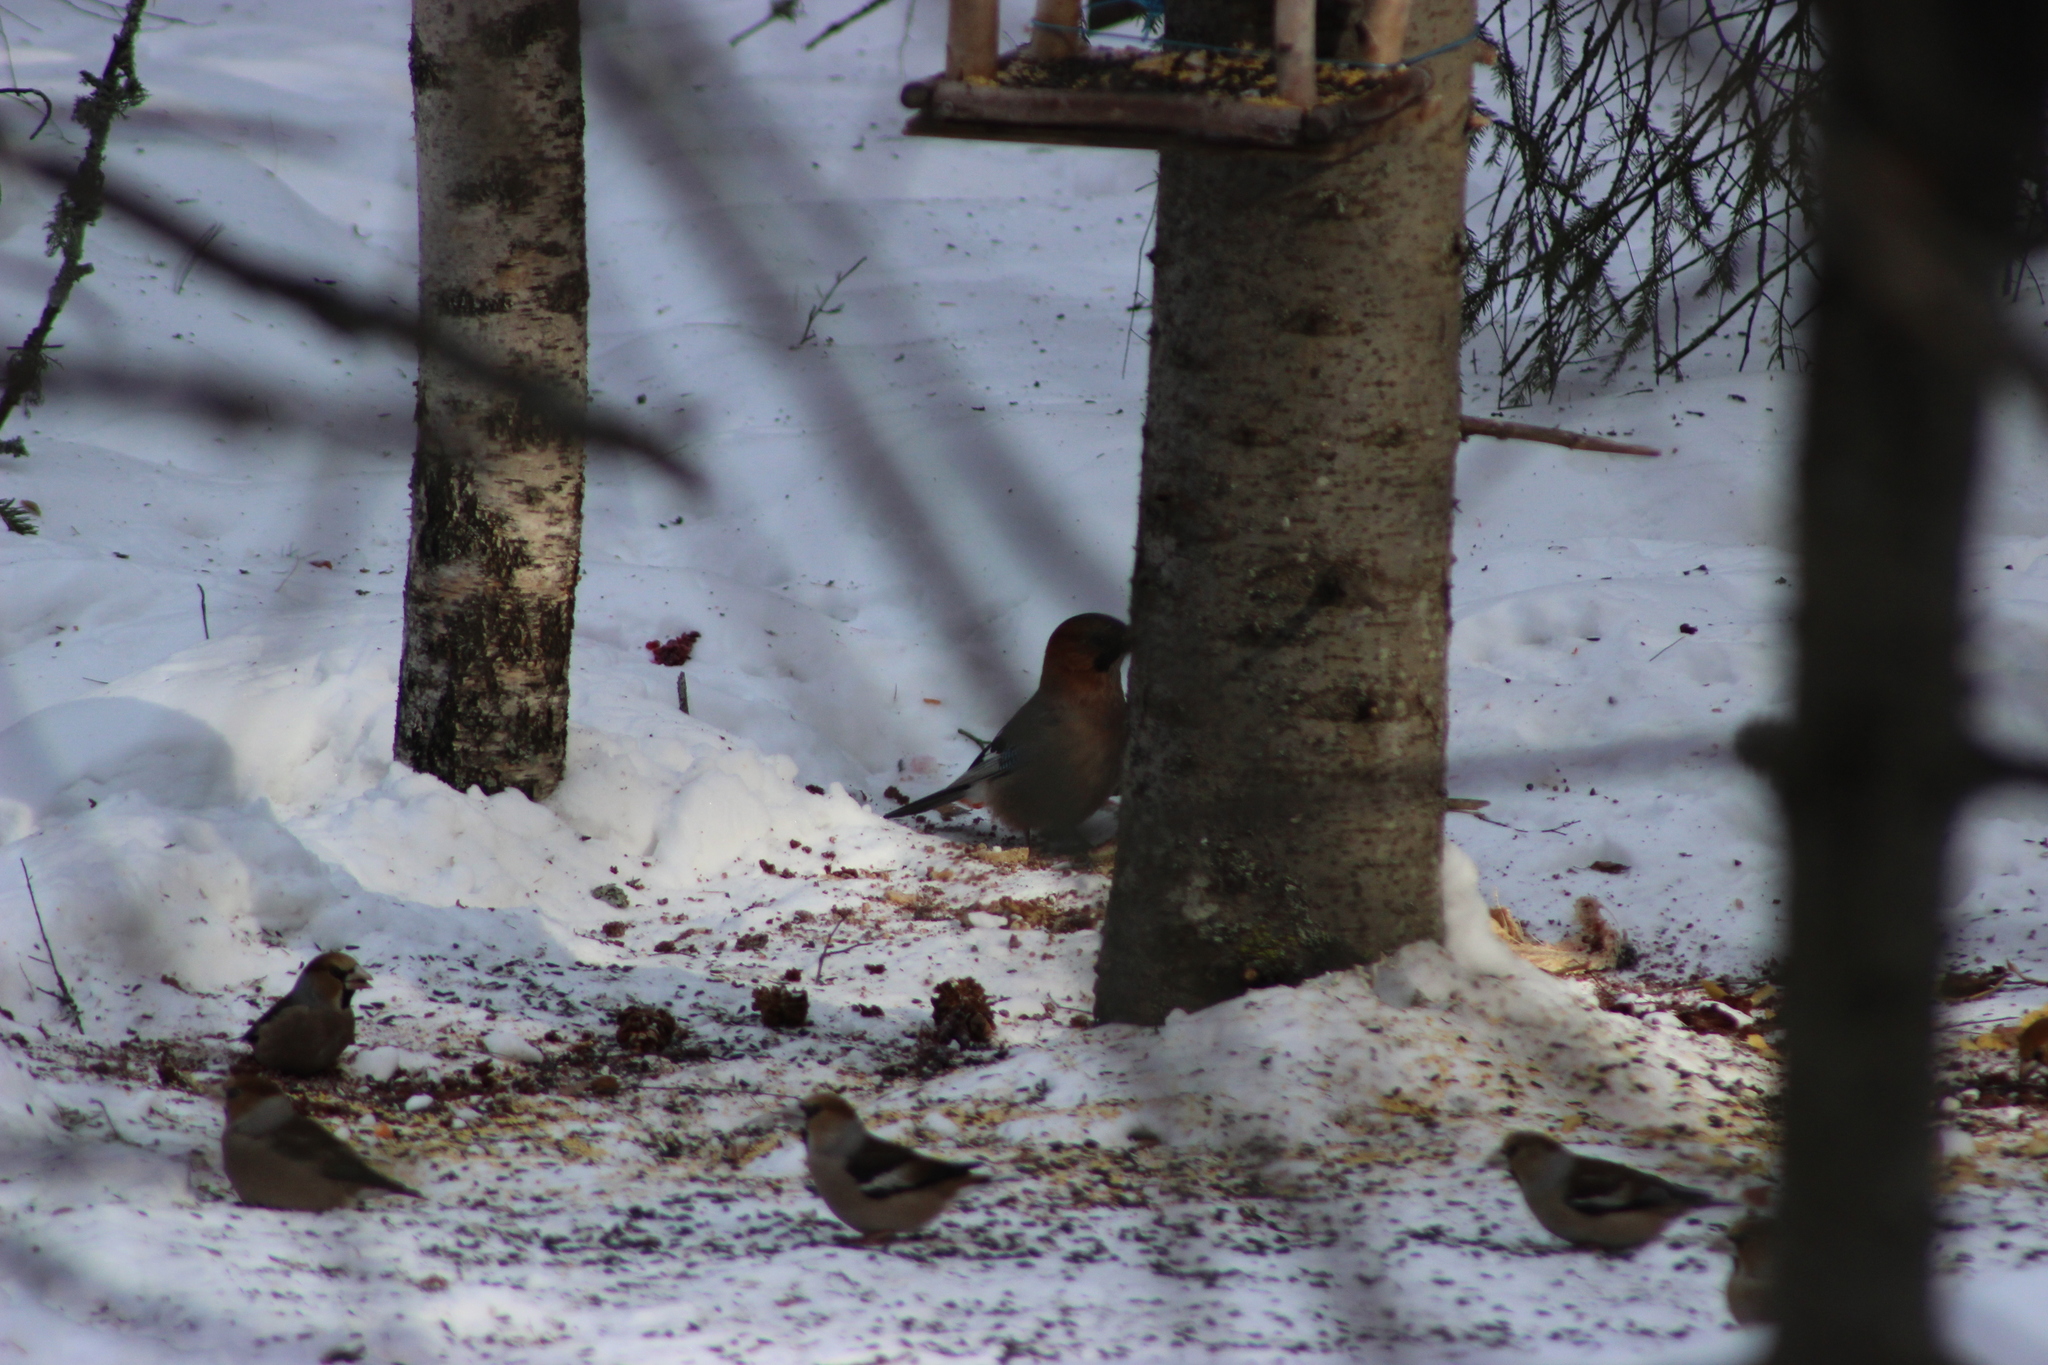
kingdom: Animalia
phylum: Chordata
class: Aves
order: Passeriformes
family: Corvidae
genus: Garrulus
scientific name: Garrulus glandarius
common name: Eurasian jay
